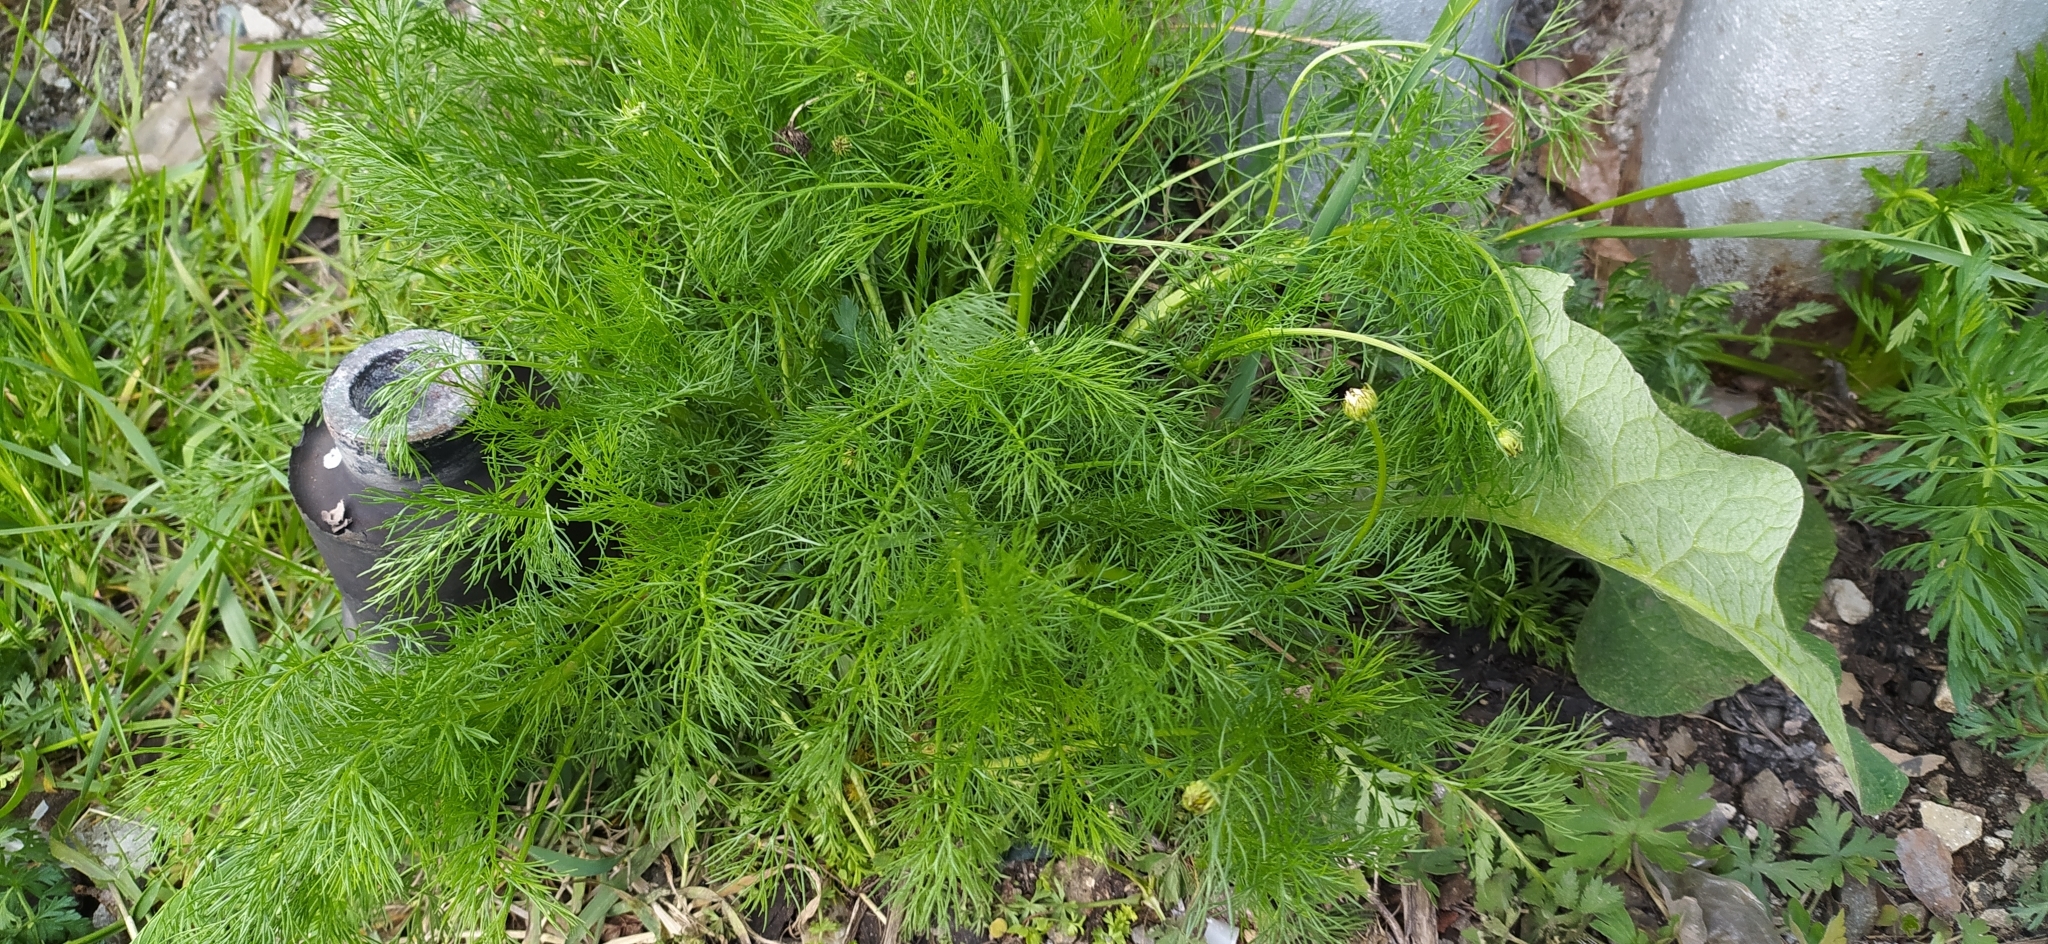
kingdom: Plantae
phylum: Tracheophyta
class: Magnoliopsida
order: Asterales
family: Asteraceae
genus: Tripleurospermum
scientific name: Tripleurospermum inodorum
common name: Scentless mayweed
